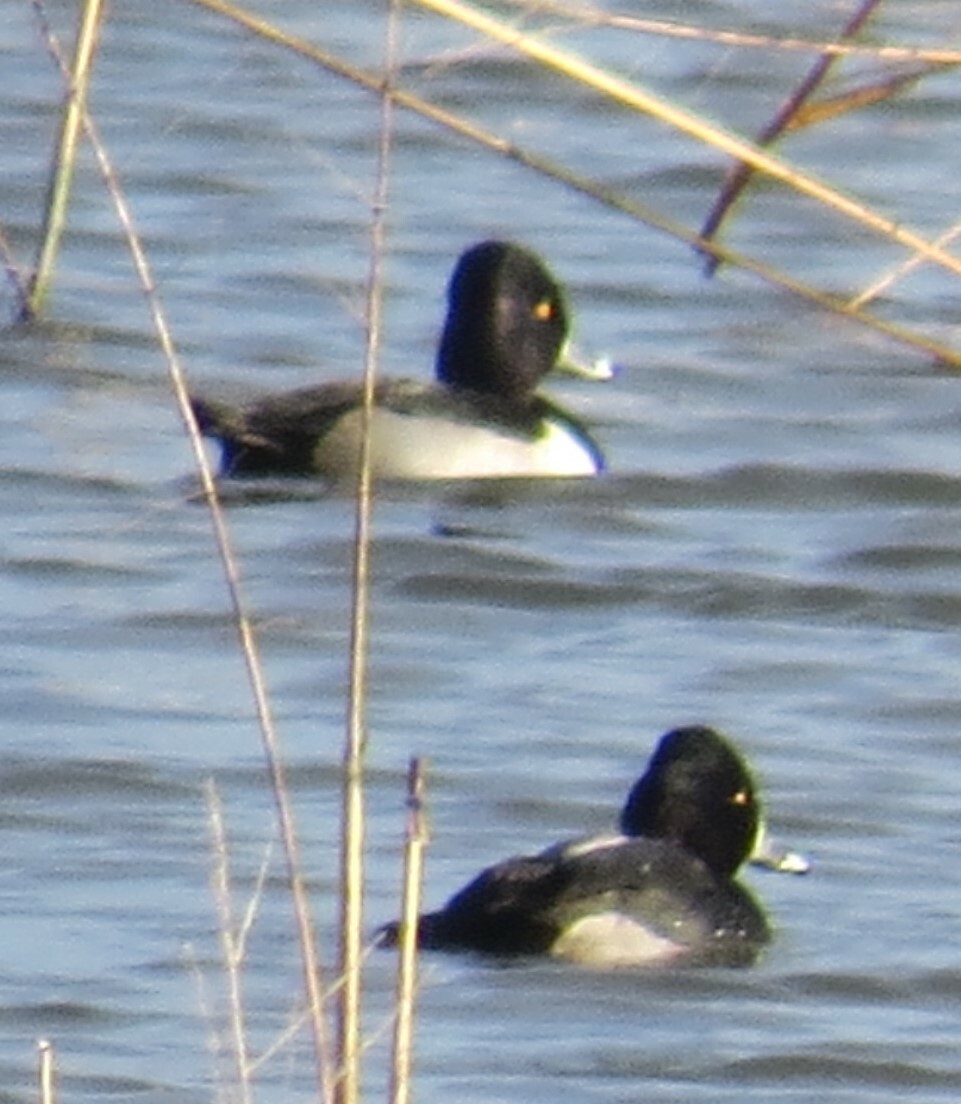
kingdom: Animalia
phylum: Chordata
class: Aves
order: Anseriformes
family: Anatidae
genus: Aythya
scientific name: Aythya collaris
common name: Ring-necked duck
